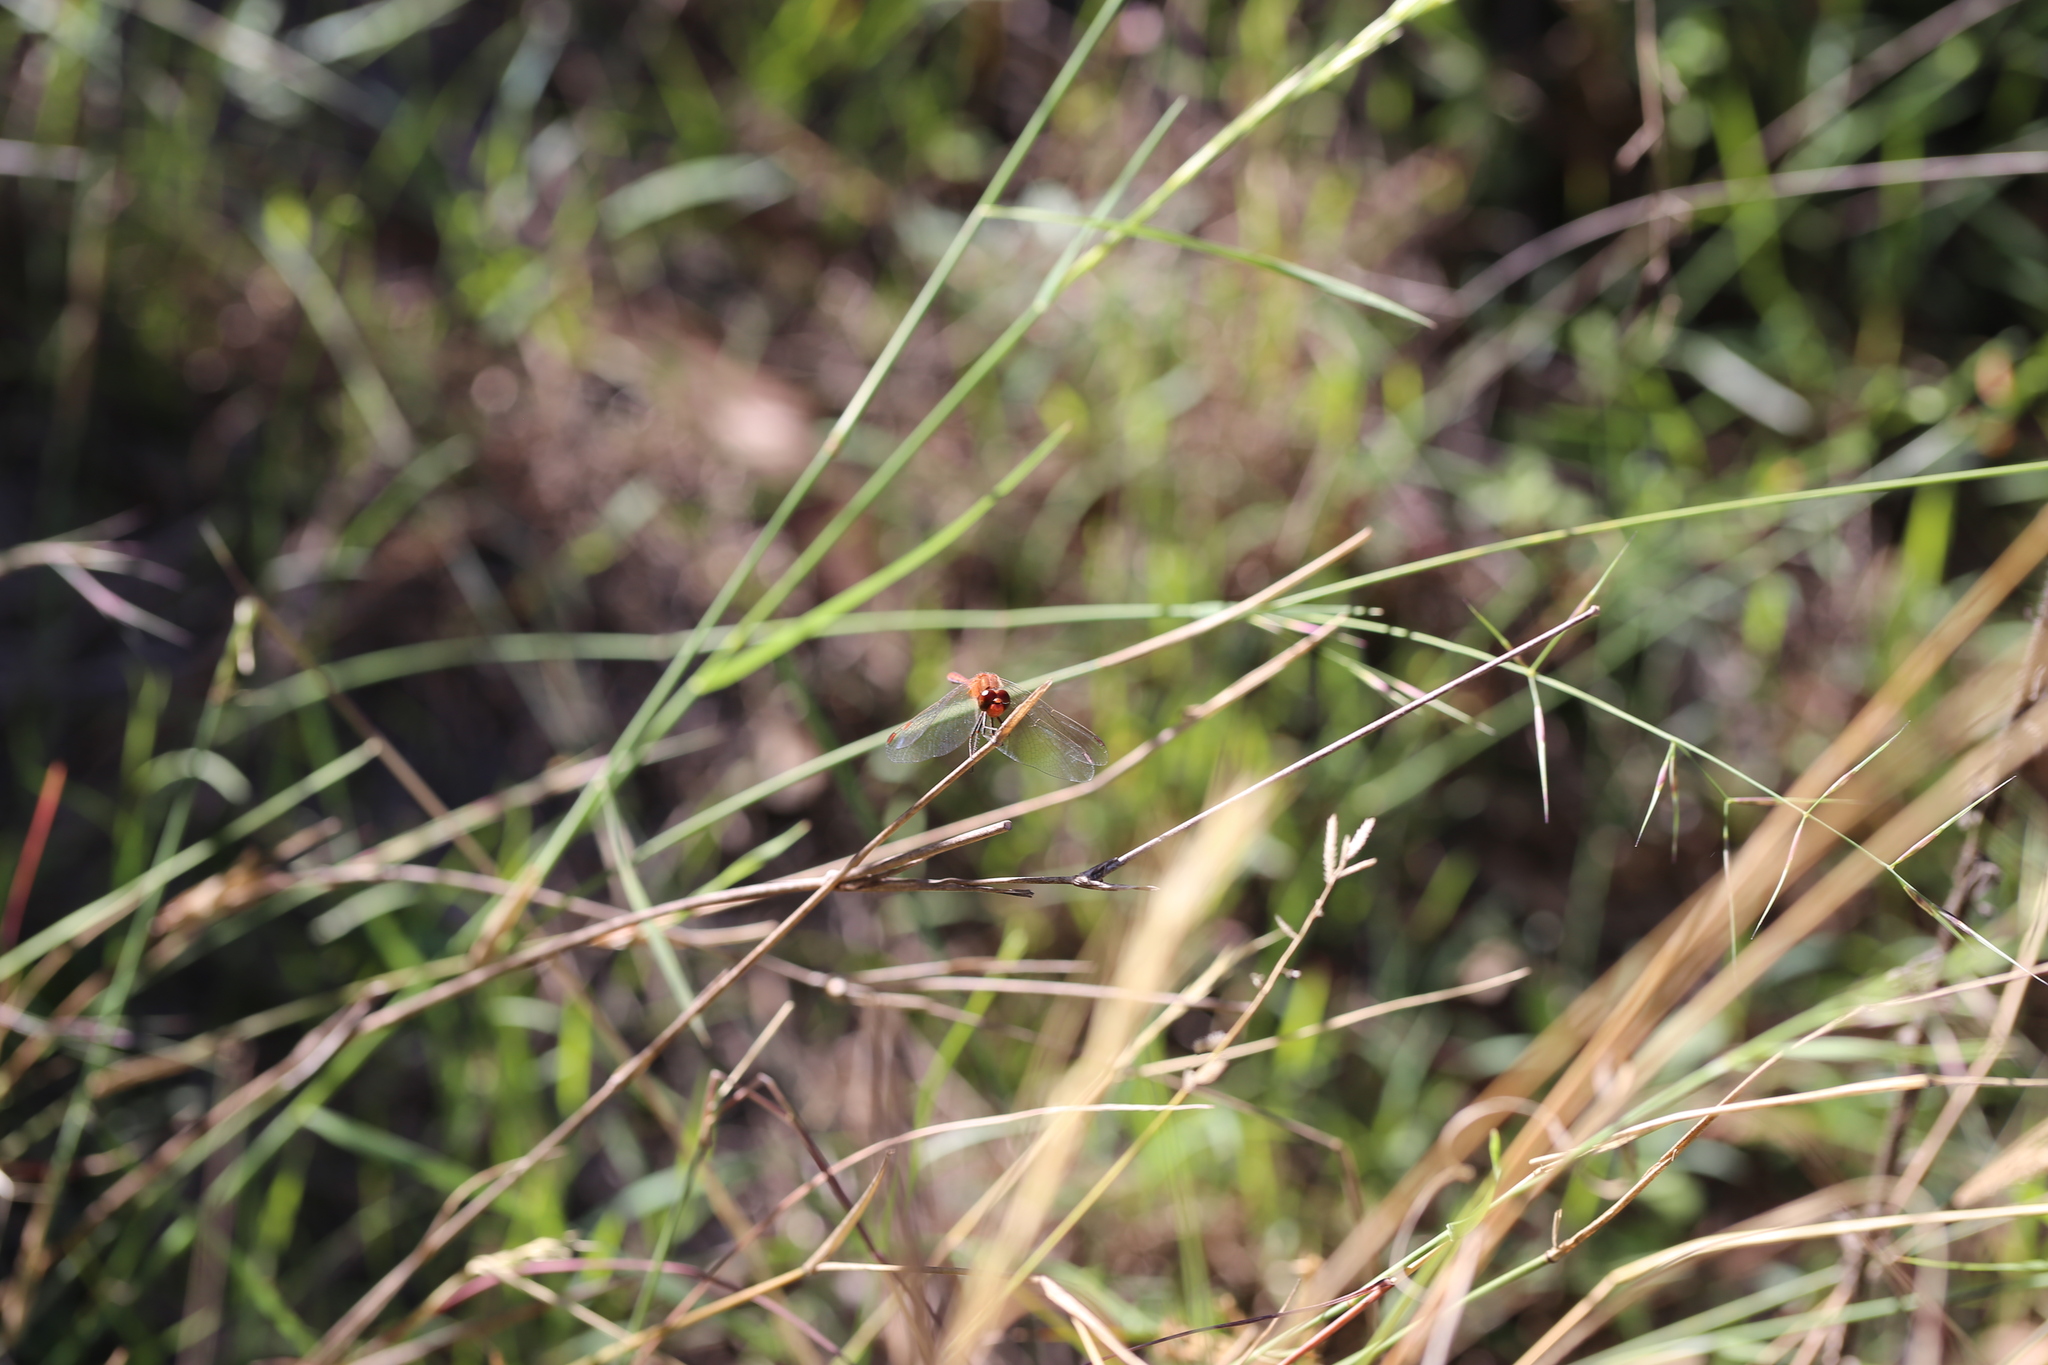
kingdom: Animalia
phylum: Arthropoda
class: Insecta
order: Odonata
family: Libellulidae
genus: Diplacodes
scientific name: Diplacodes bipunctata
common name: Red percher dragonfly
